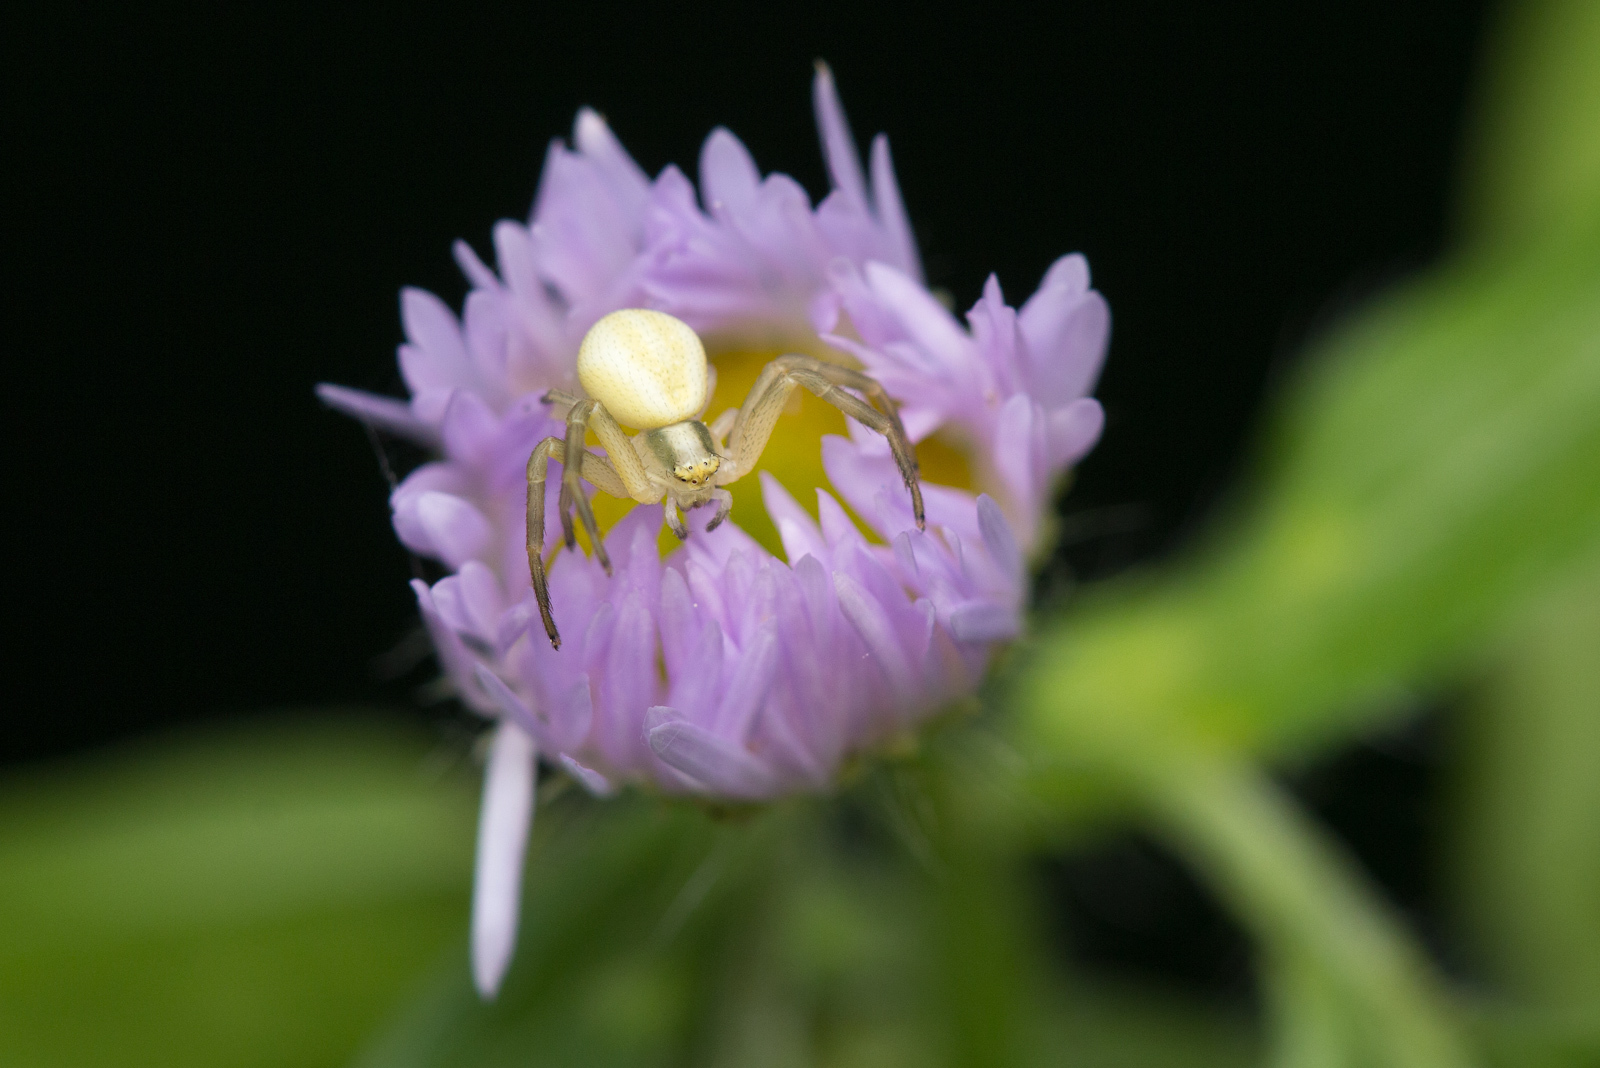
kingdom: Animalia
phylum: Arthropoda
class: Arachnida
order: Araneae
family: Thomisidae
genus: Misumena
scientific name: Misumena vatia
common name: Goldenrod crab spider
